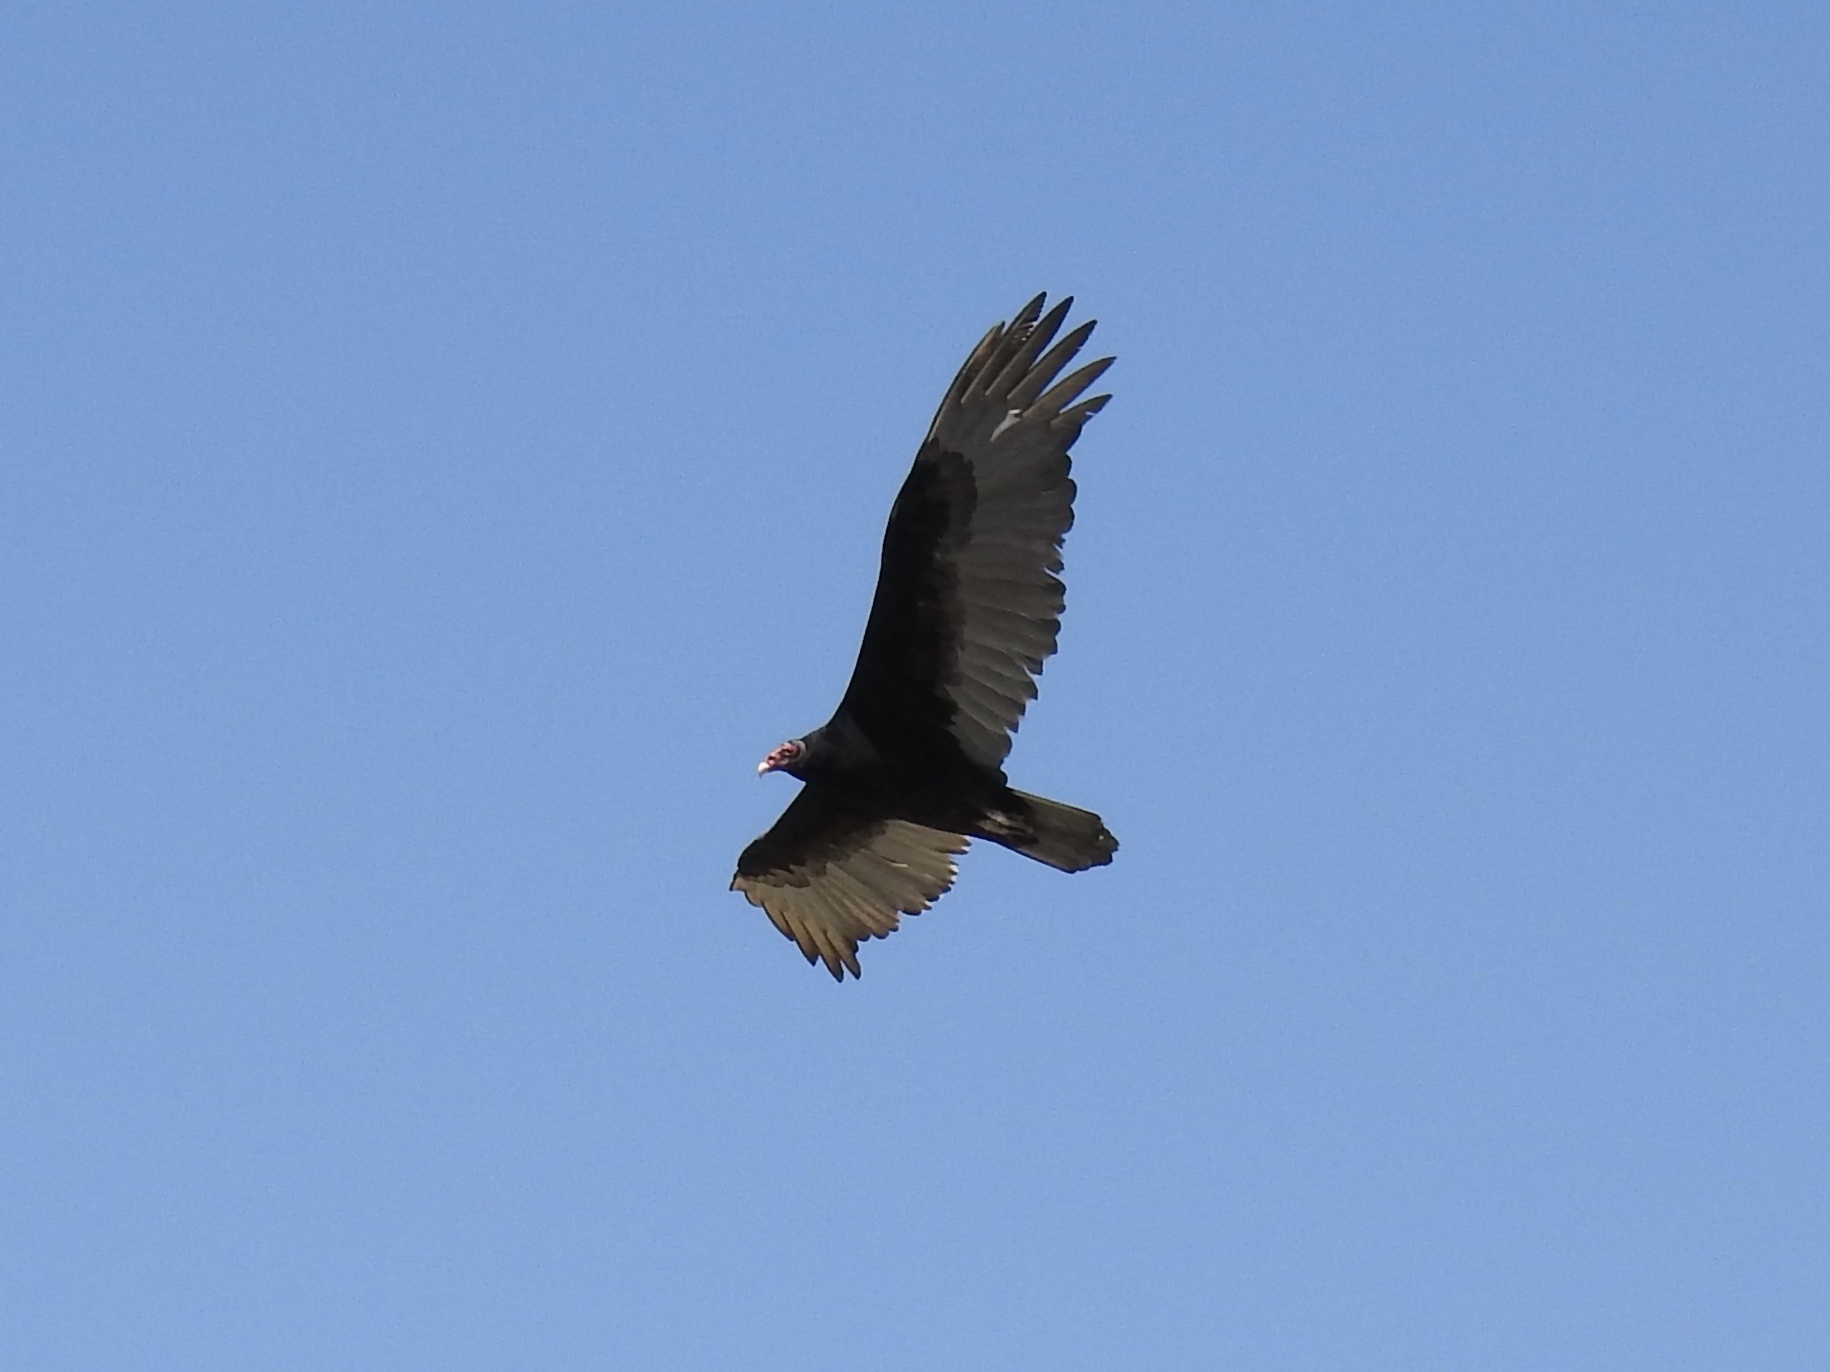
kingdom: Animalia
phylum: Chordata
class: Aves
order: Accipitriformes
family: Cathartidae
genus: Cathartes
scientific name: Cathartes aura
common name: Turkey vulture
